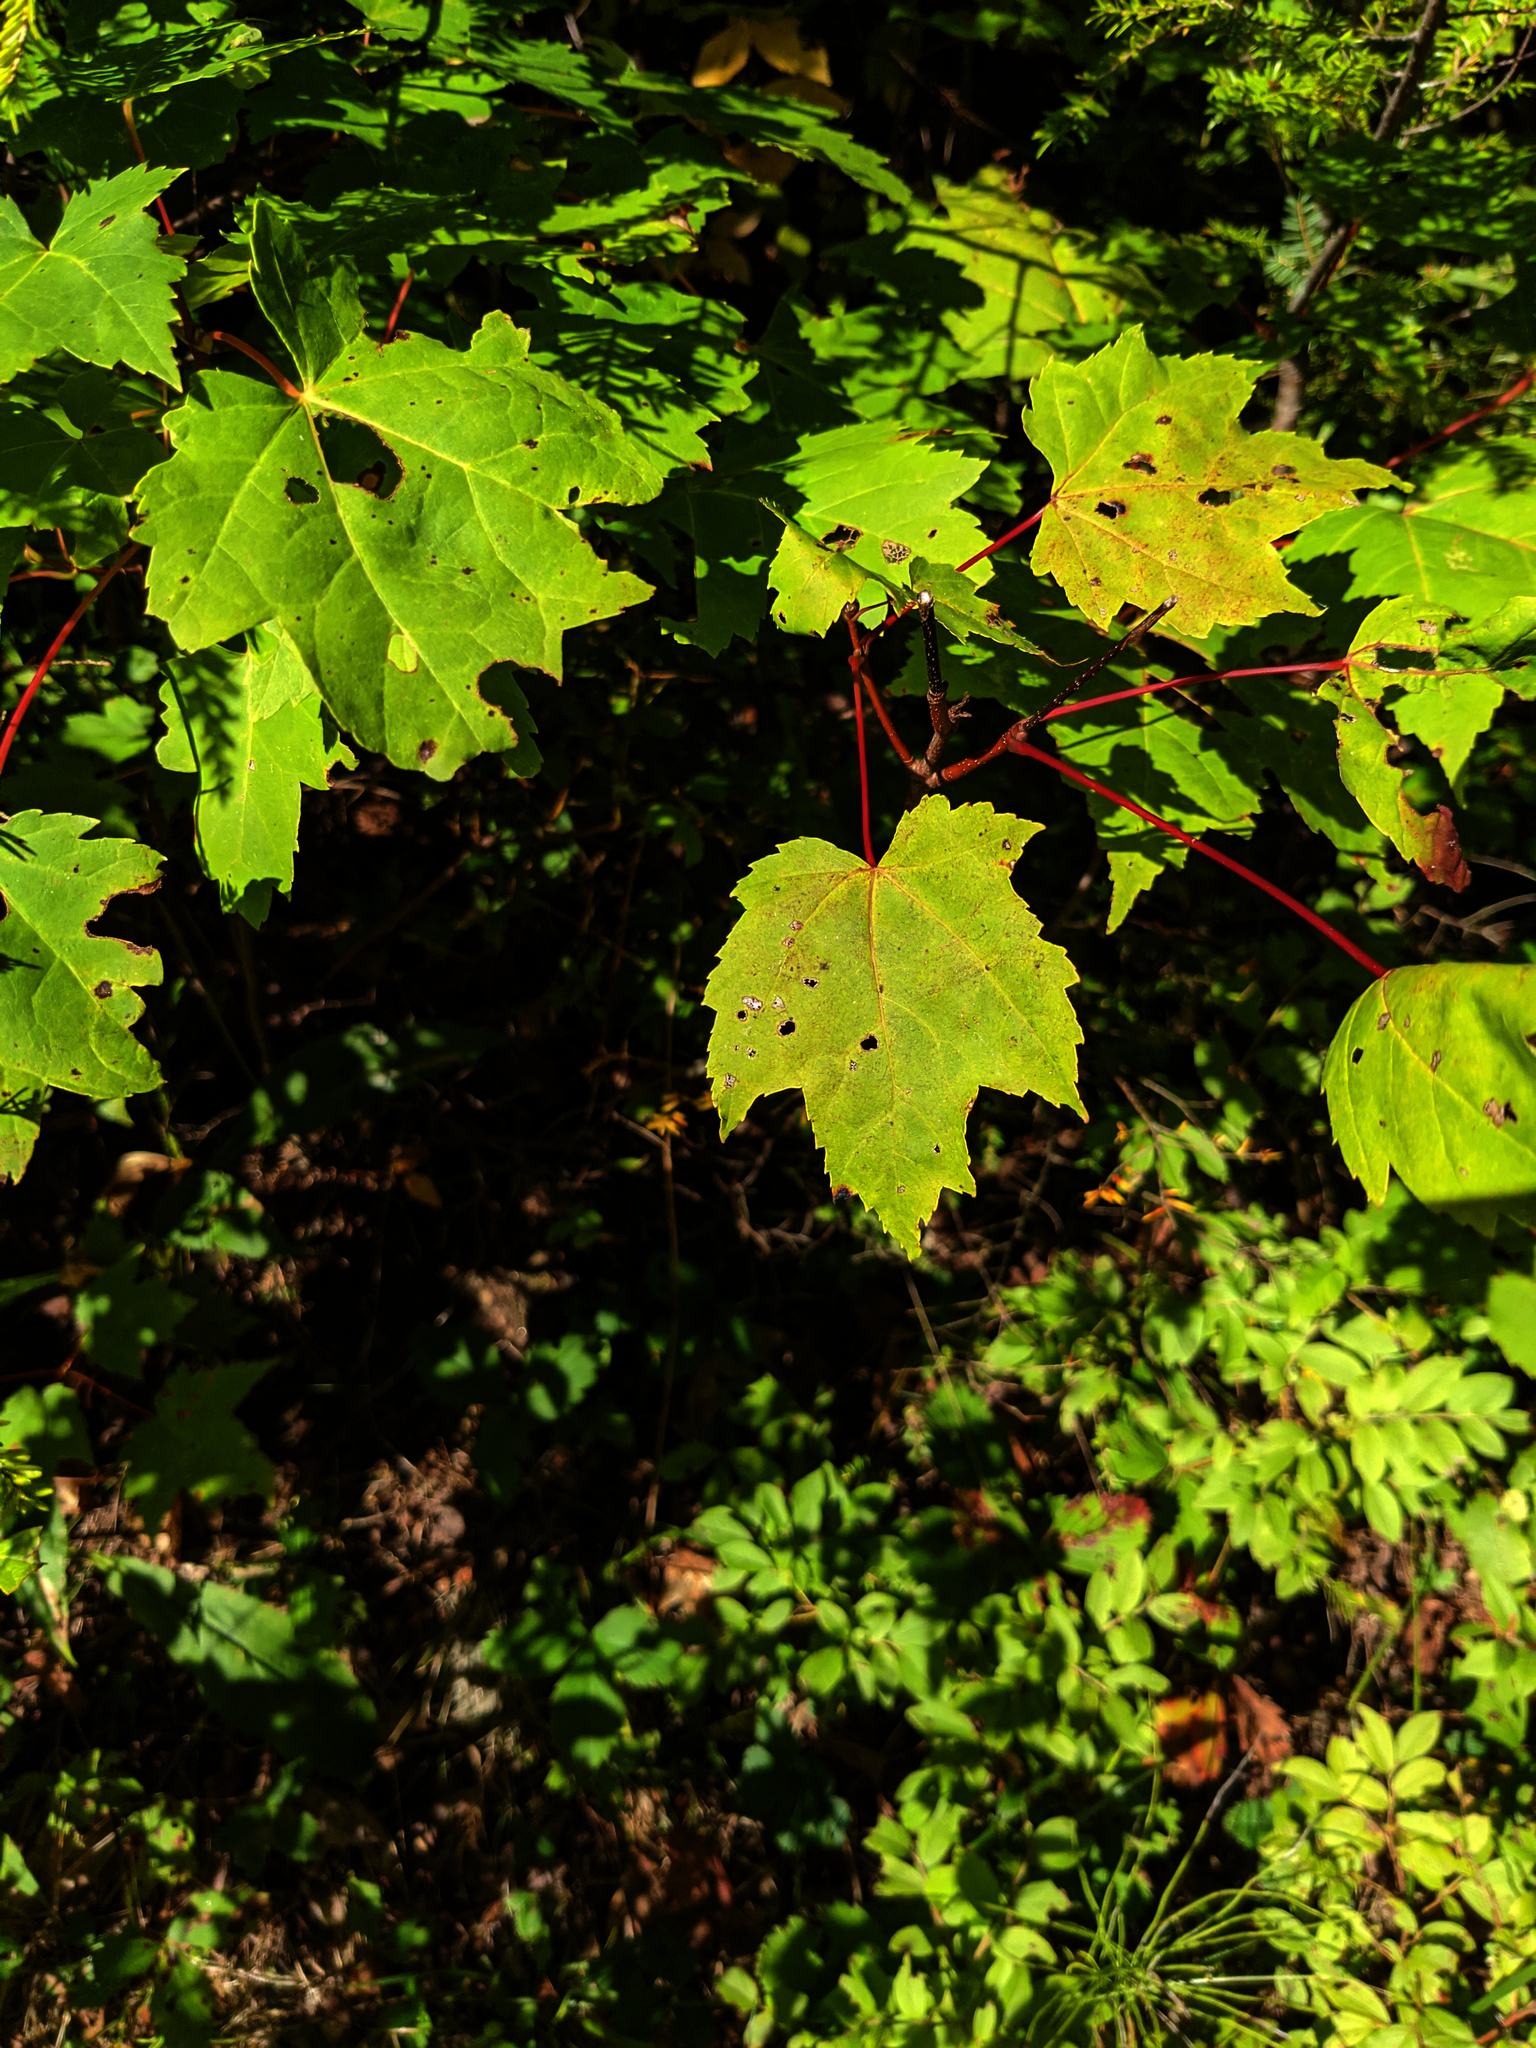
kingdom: Plantae
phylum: Tracheophyta
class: Magnoliopsida
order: Sapindales
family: Sapindaceae
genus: Acer
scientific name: Acer rubrum
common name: Red maple
